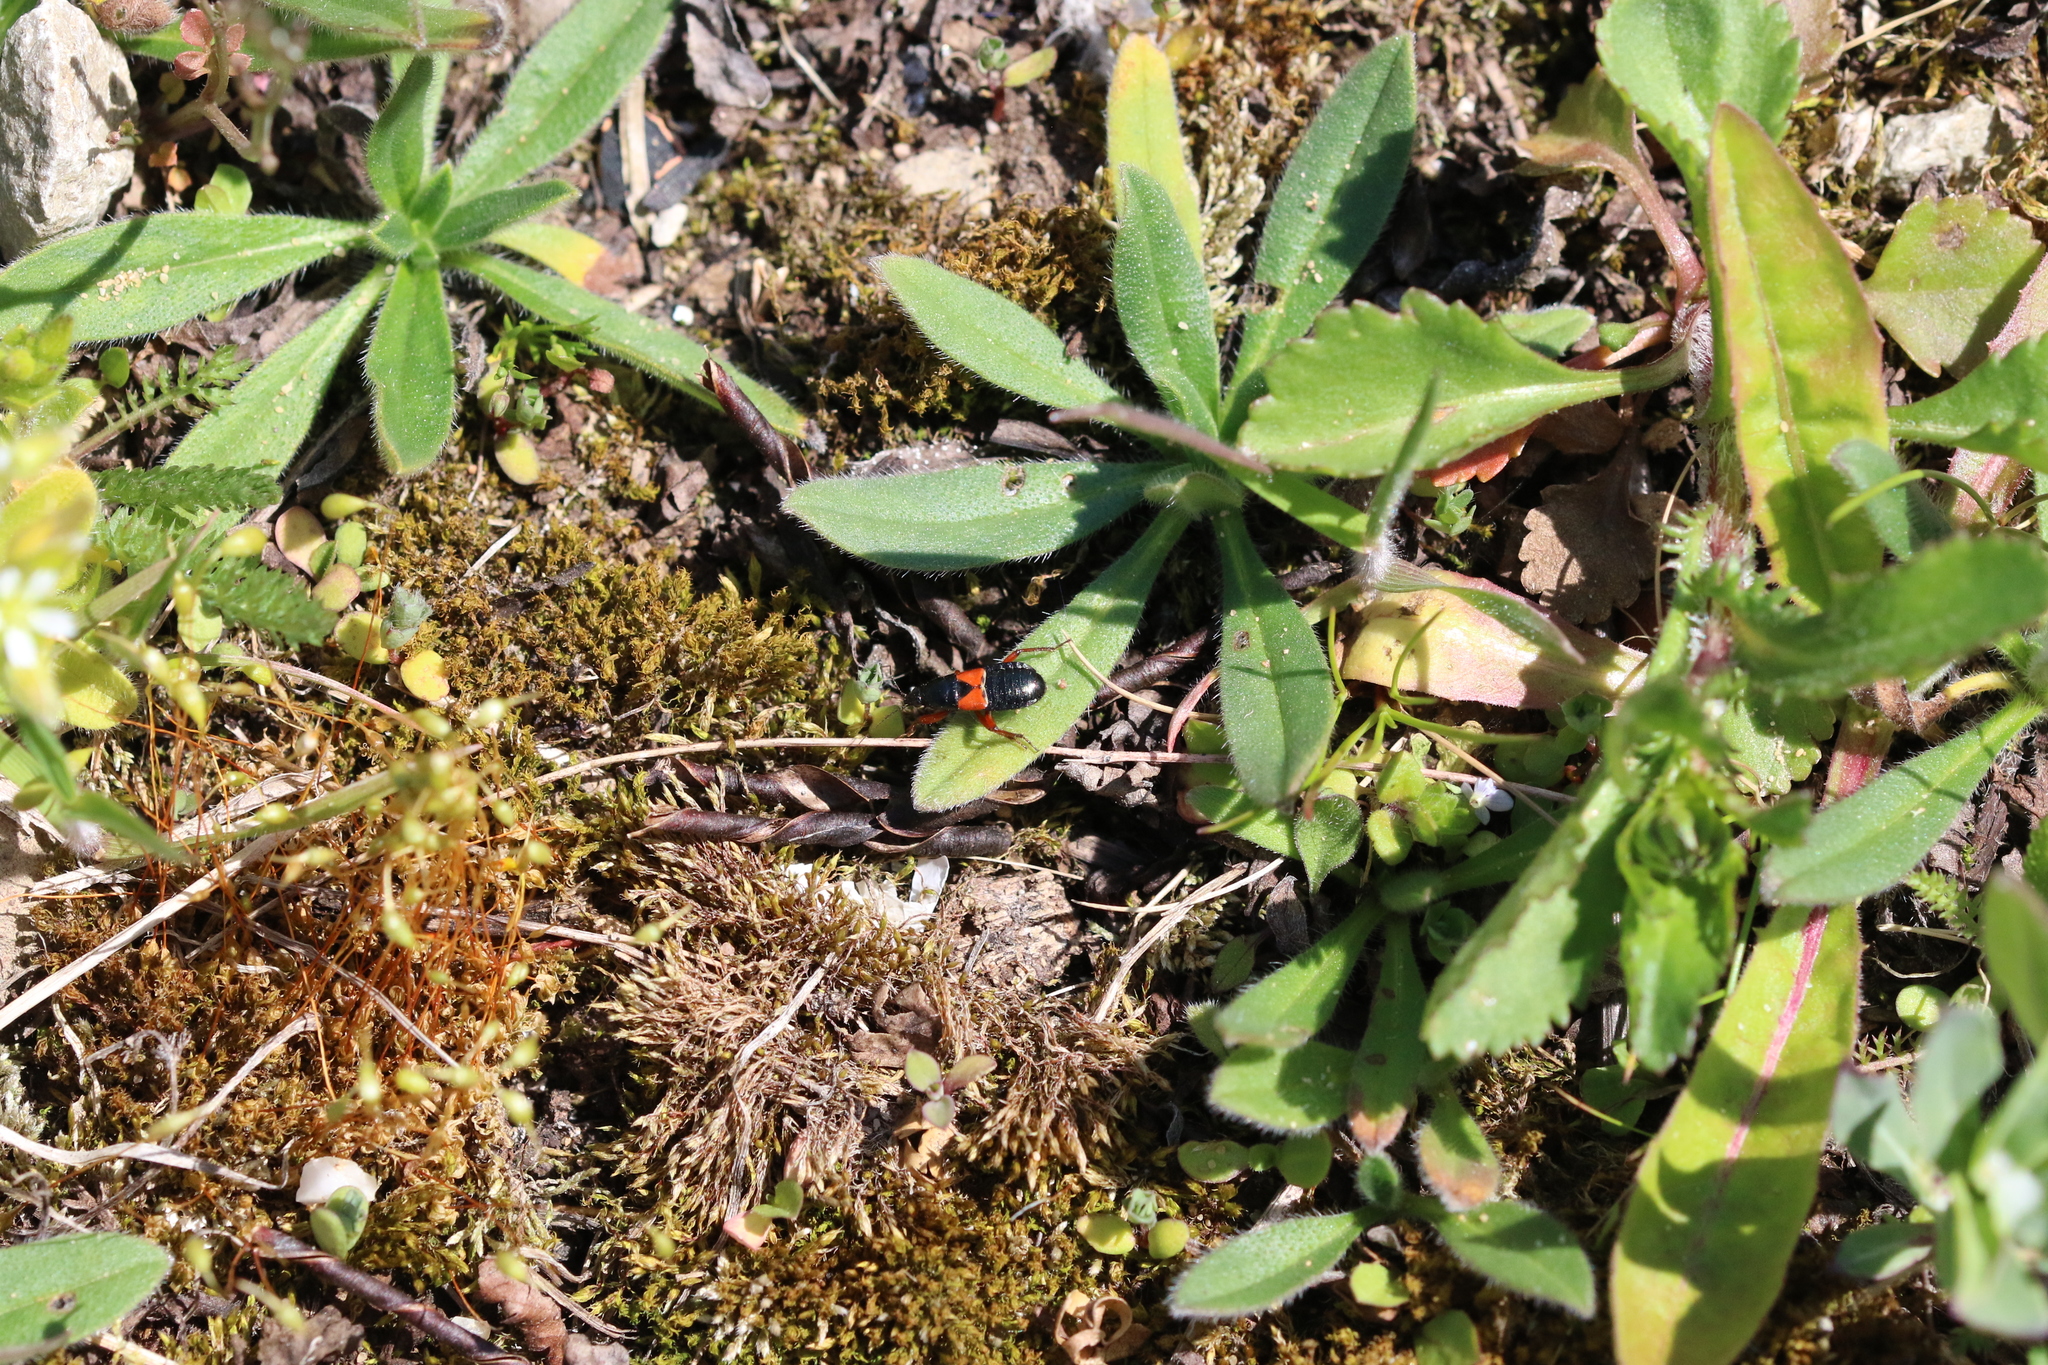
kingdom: Animalia
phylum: Arthropoda
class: Insecta
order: Hemiptera
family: Nabidae
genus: Prostemma
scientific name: Prostemma guttula
